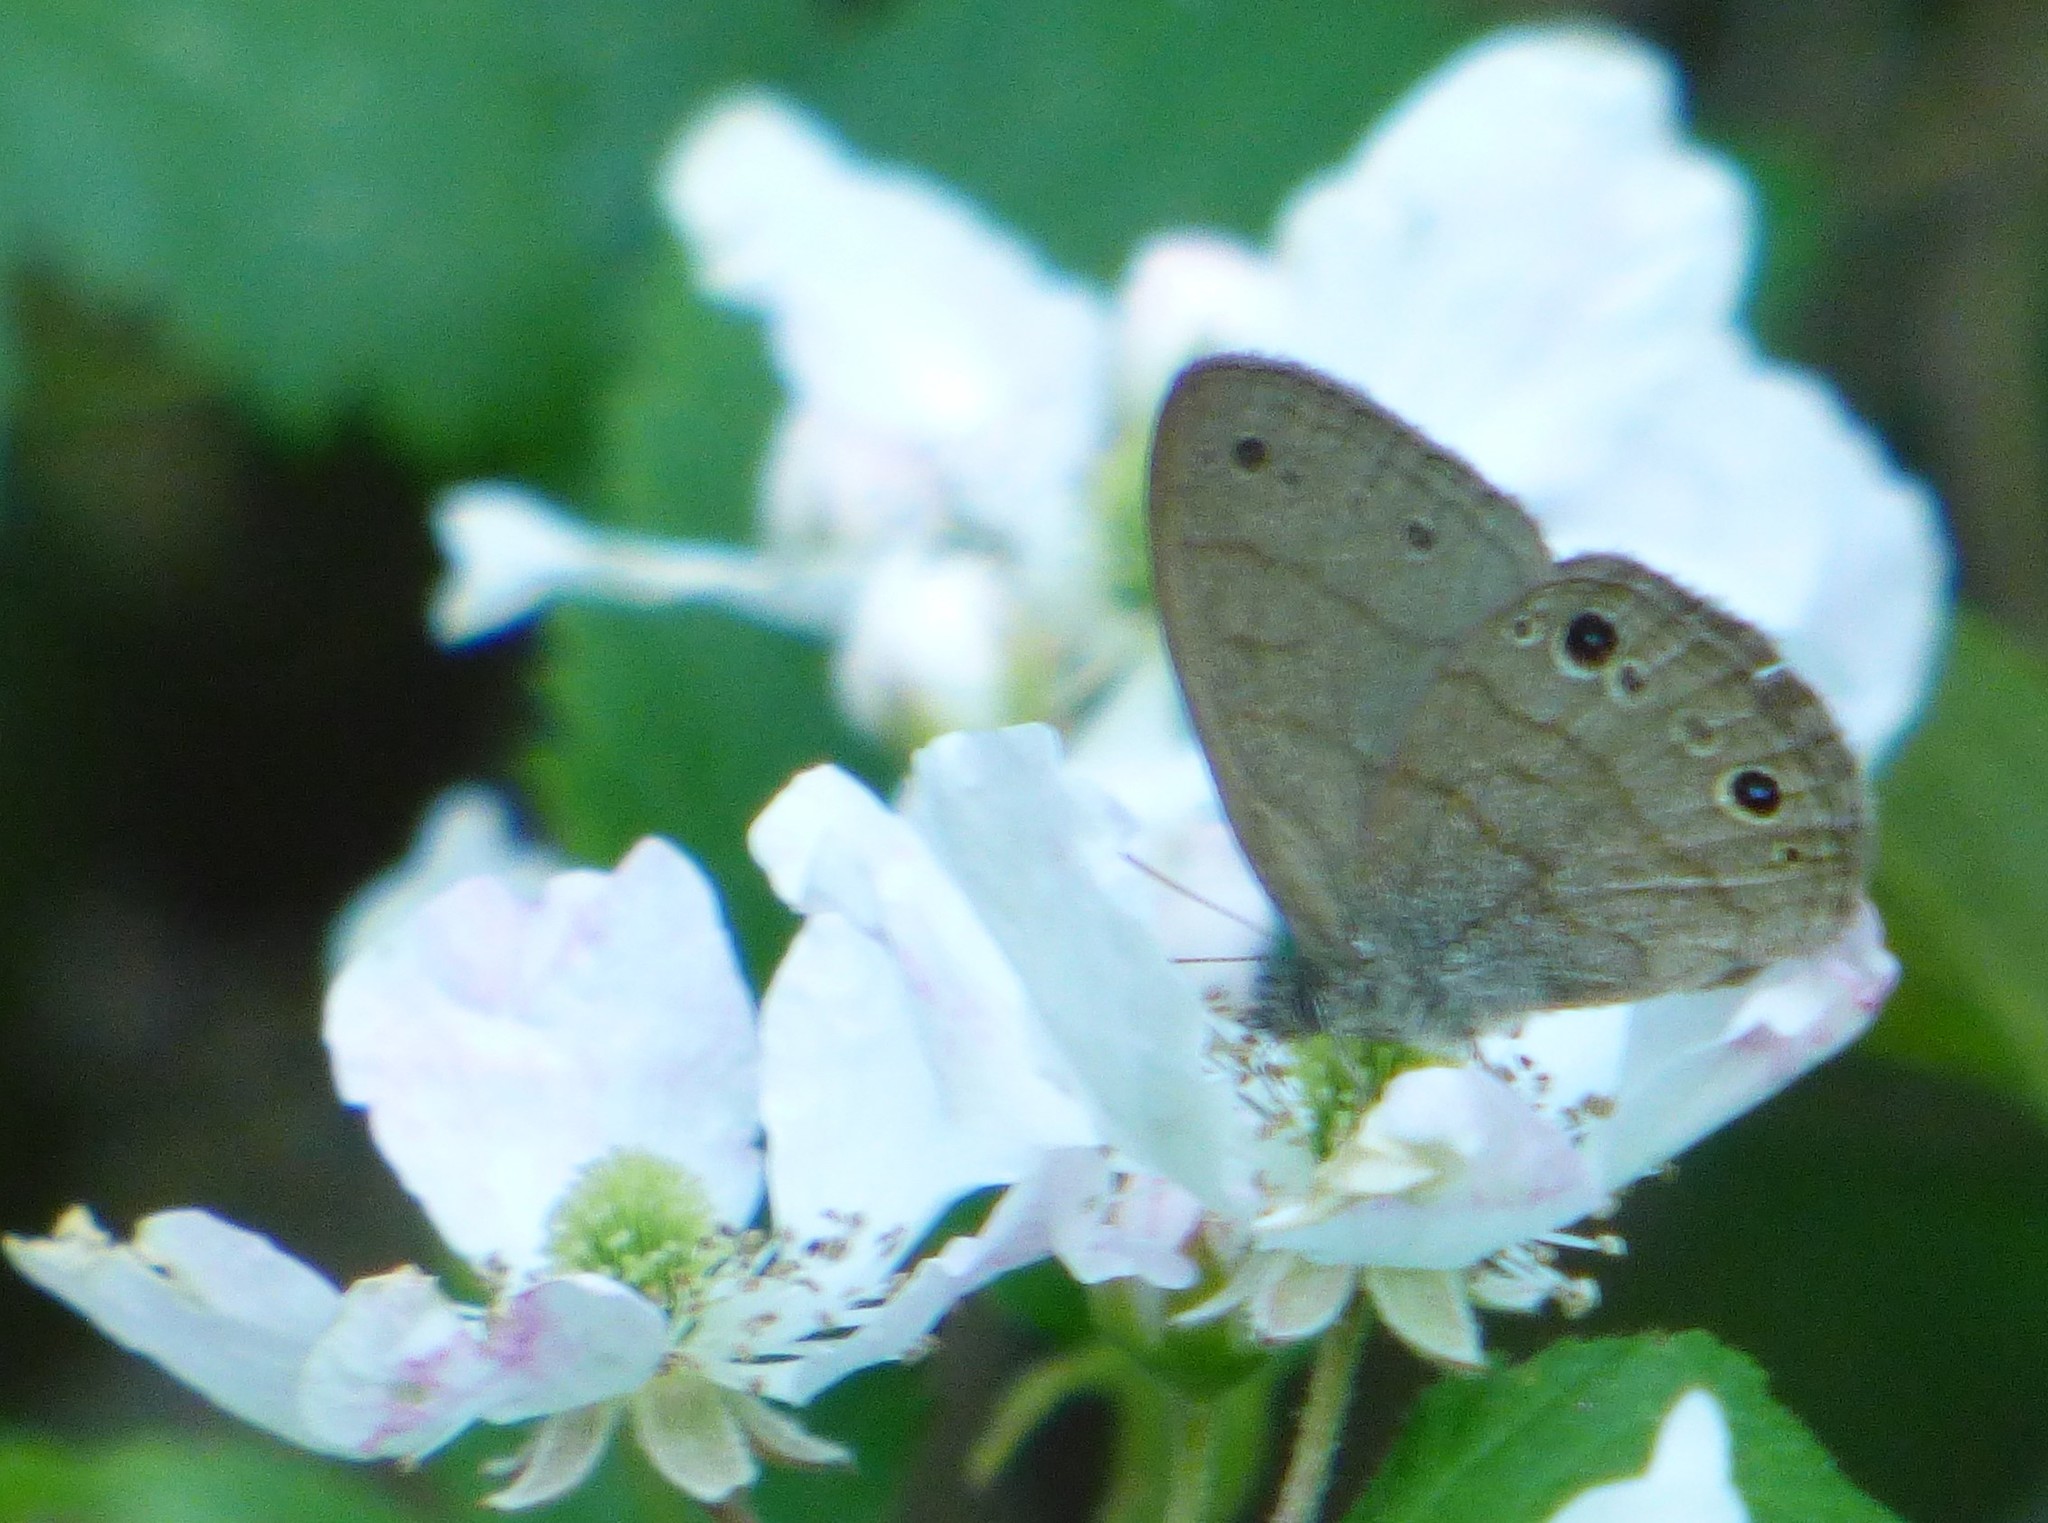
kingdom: Animalia
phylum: Arthropoda
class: Insecta
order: Lepidoptera
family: Nymphalidae
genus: Hermeuptychia
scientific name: Hermeuptychia hermes
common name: Hermes satyr
